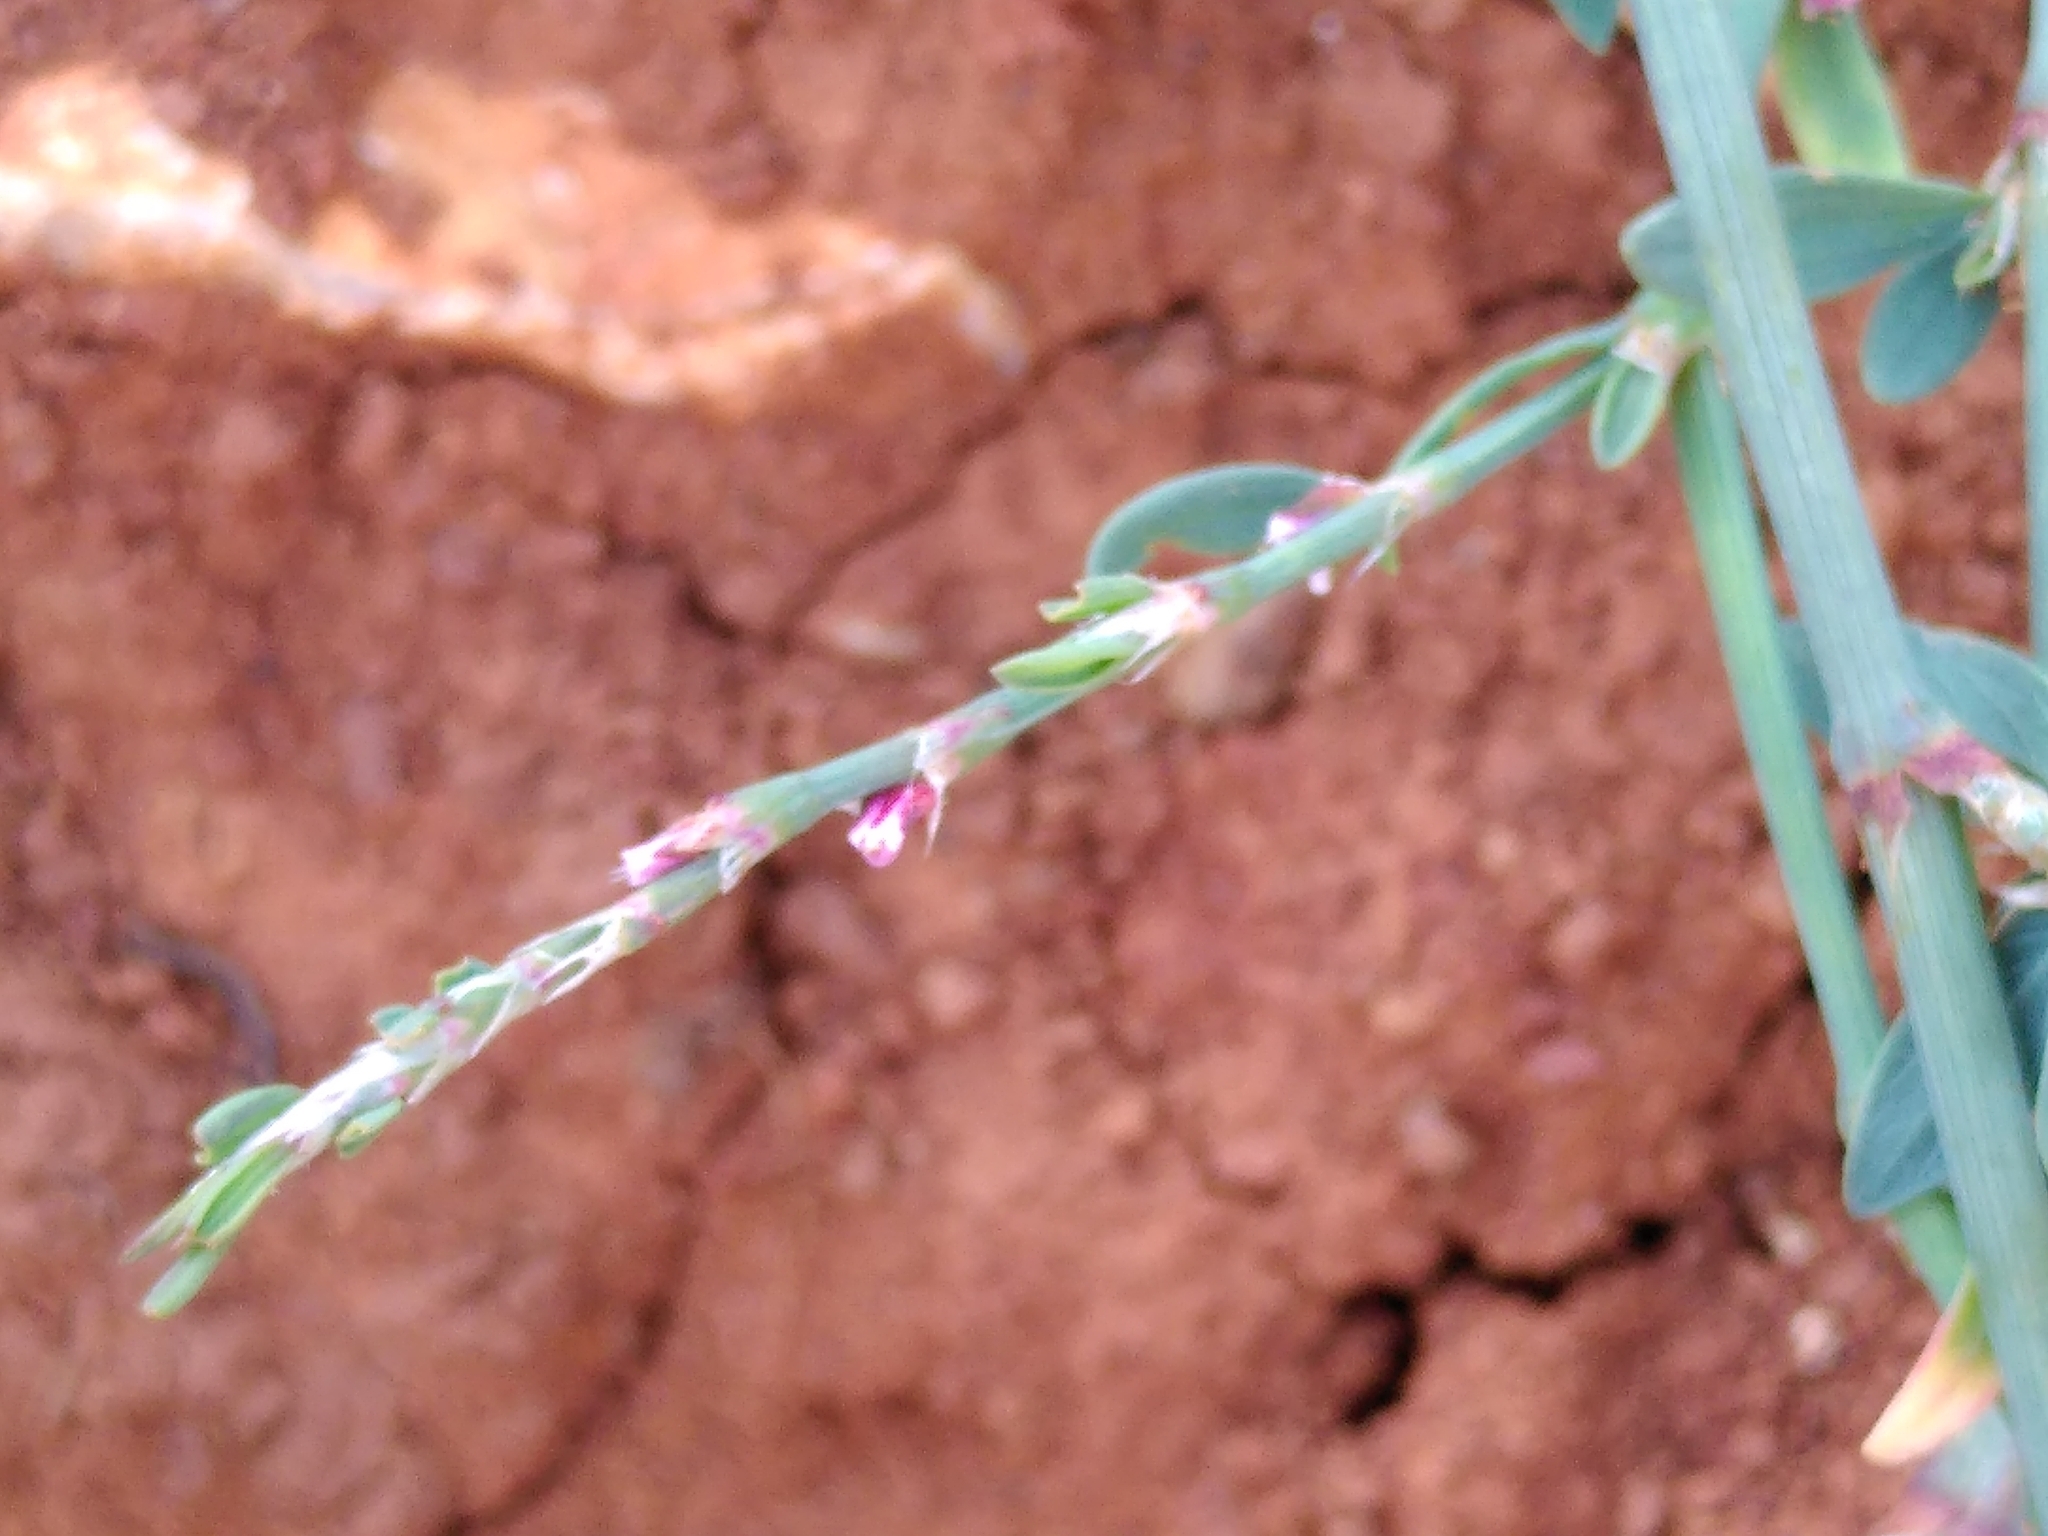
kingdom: Plantae
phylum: Tracheophyta
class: Magnoliopsida
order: Caryophyllales
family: Polygonaceae
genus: Polygonum
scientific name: Polygonum aviculare
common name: Prostrate knotweed
